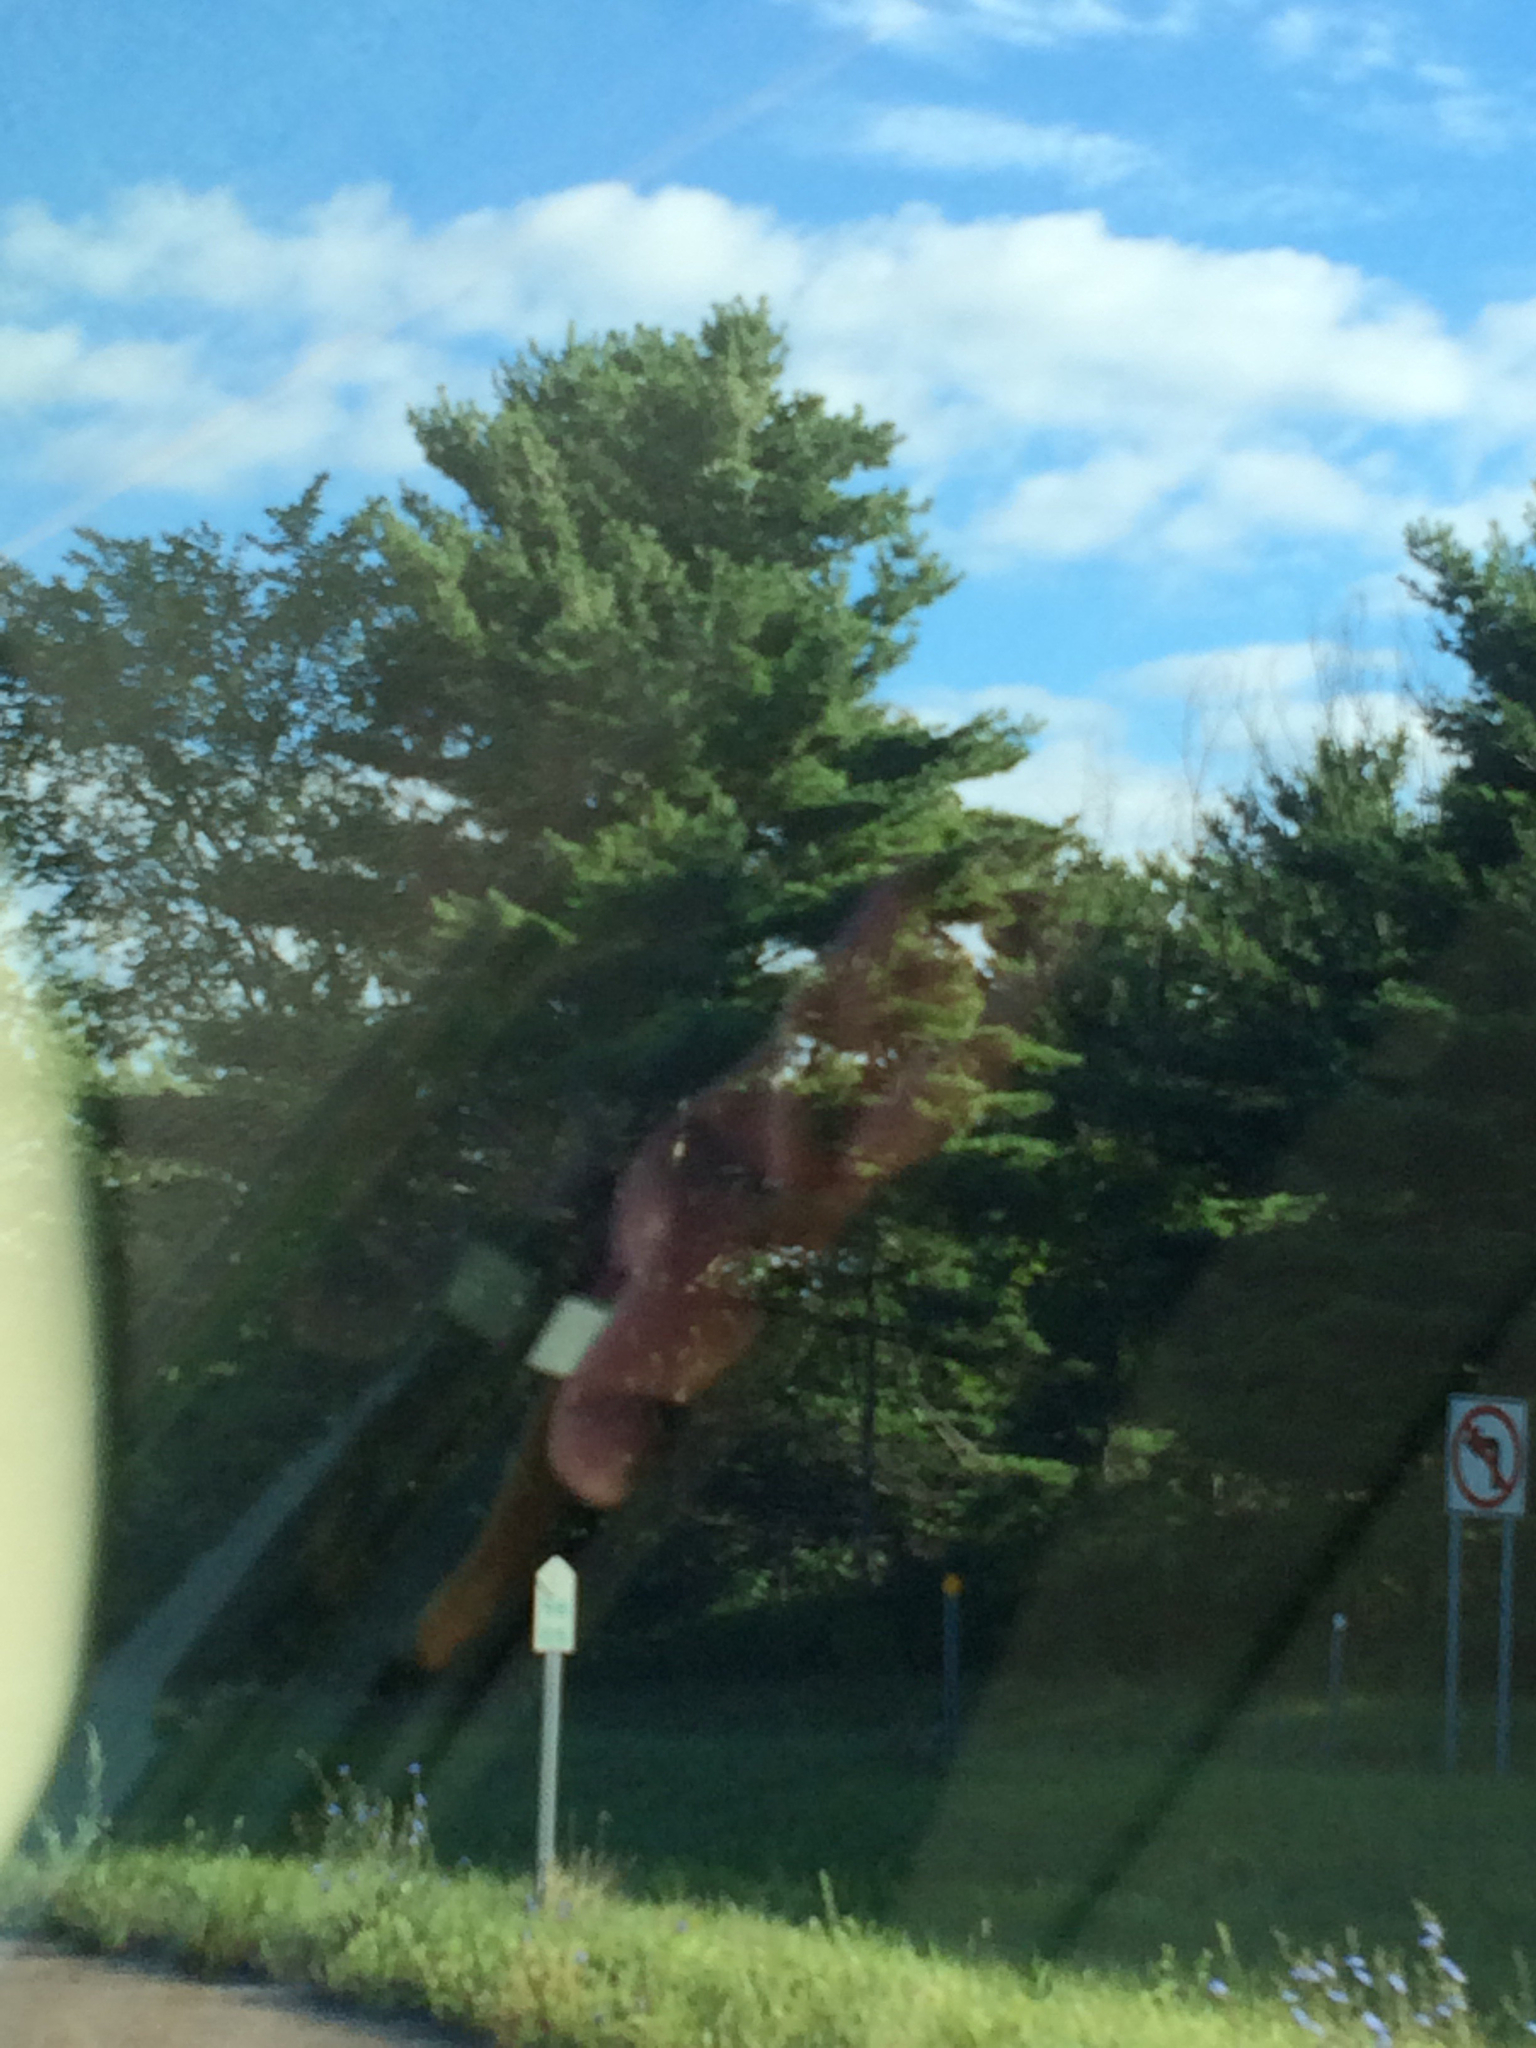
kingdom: Plantae
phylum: Tracheophyta
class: Pinopsida
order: Pinales
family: Pinaceae
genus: Pinus
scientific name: Pinus strobus
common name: Weymouth pine
